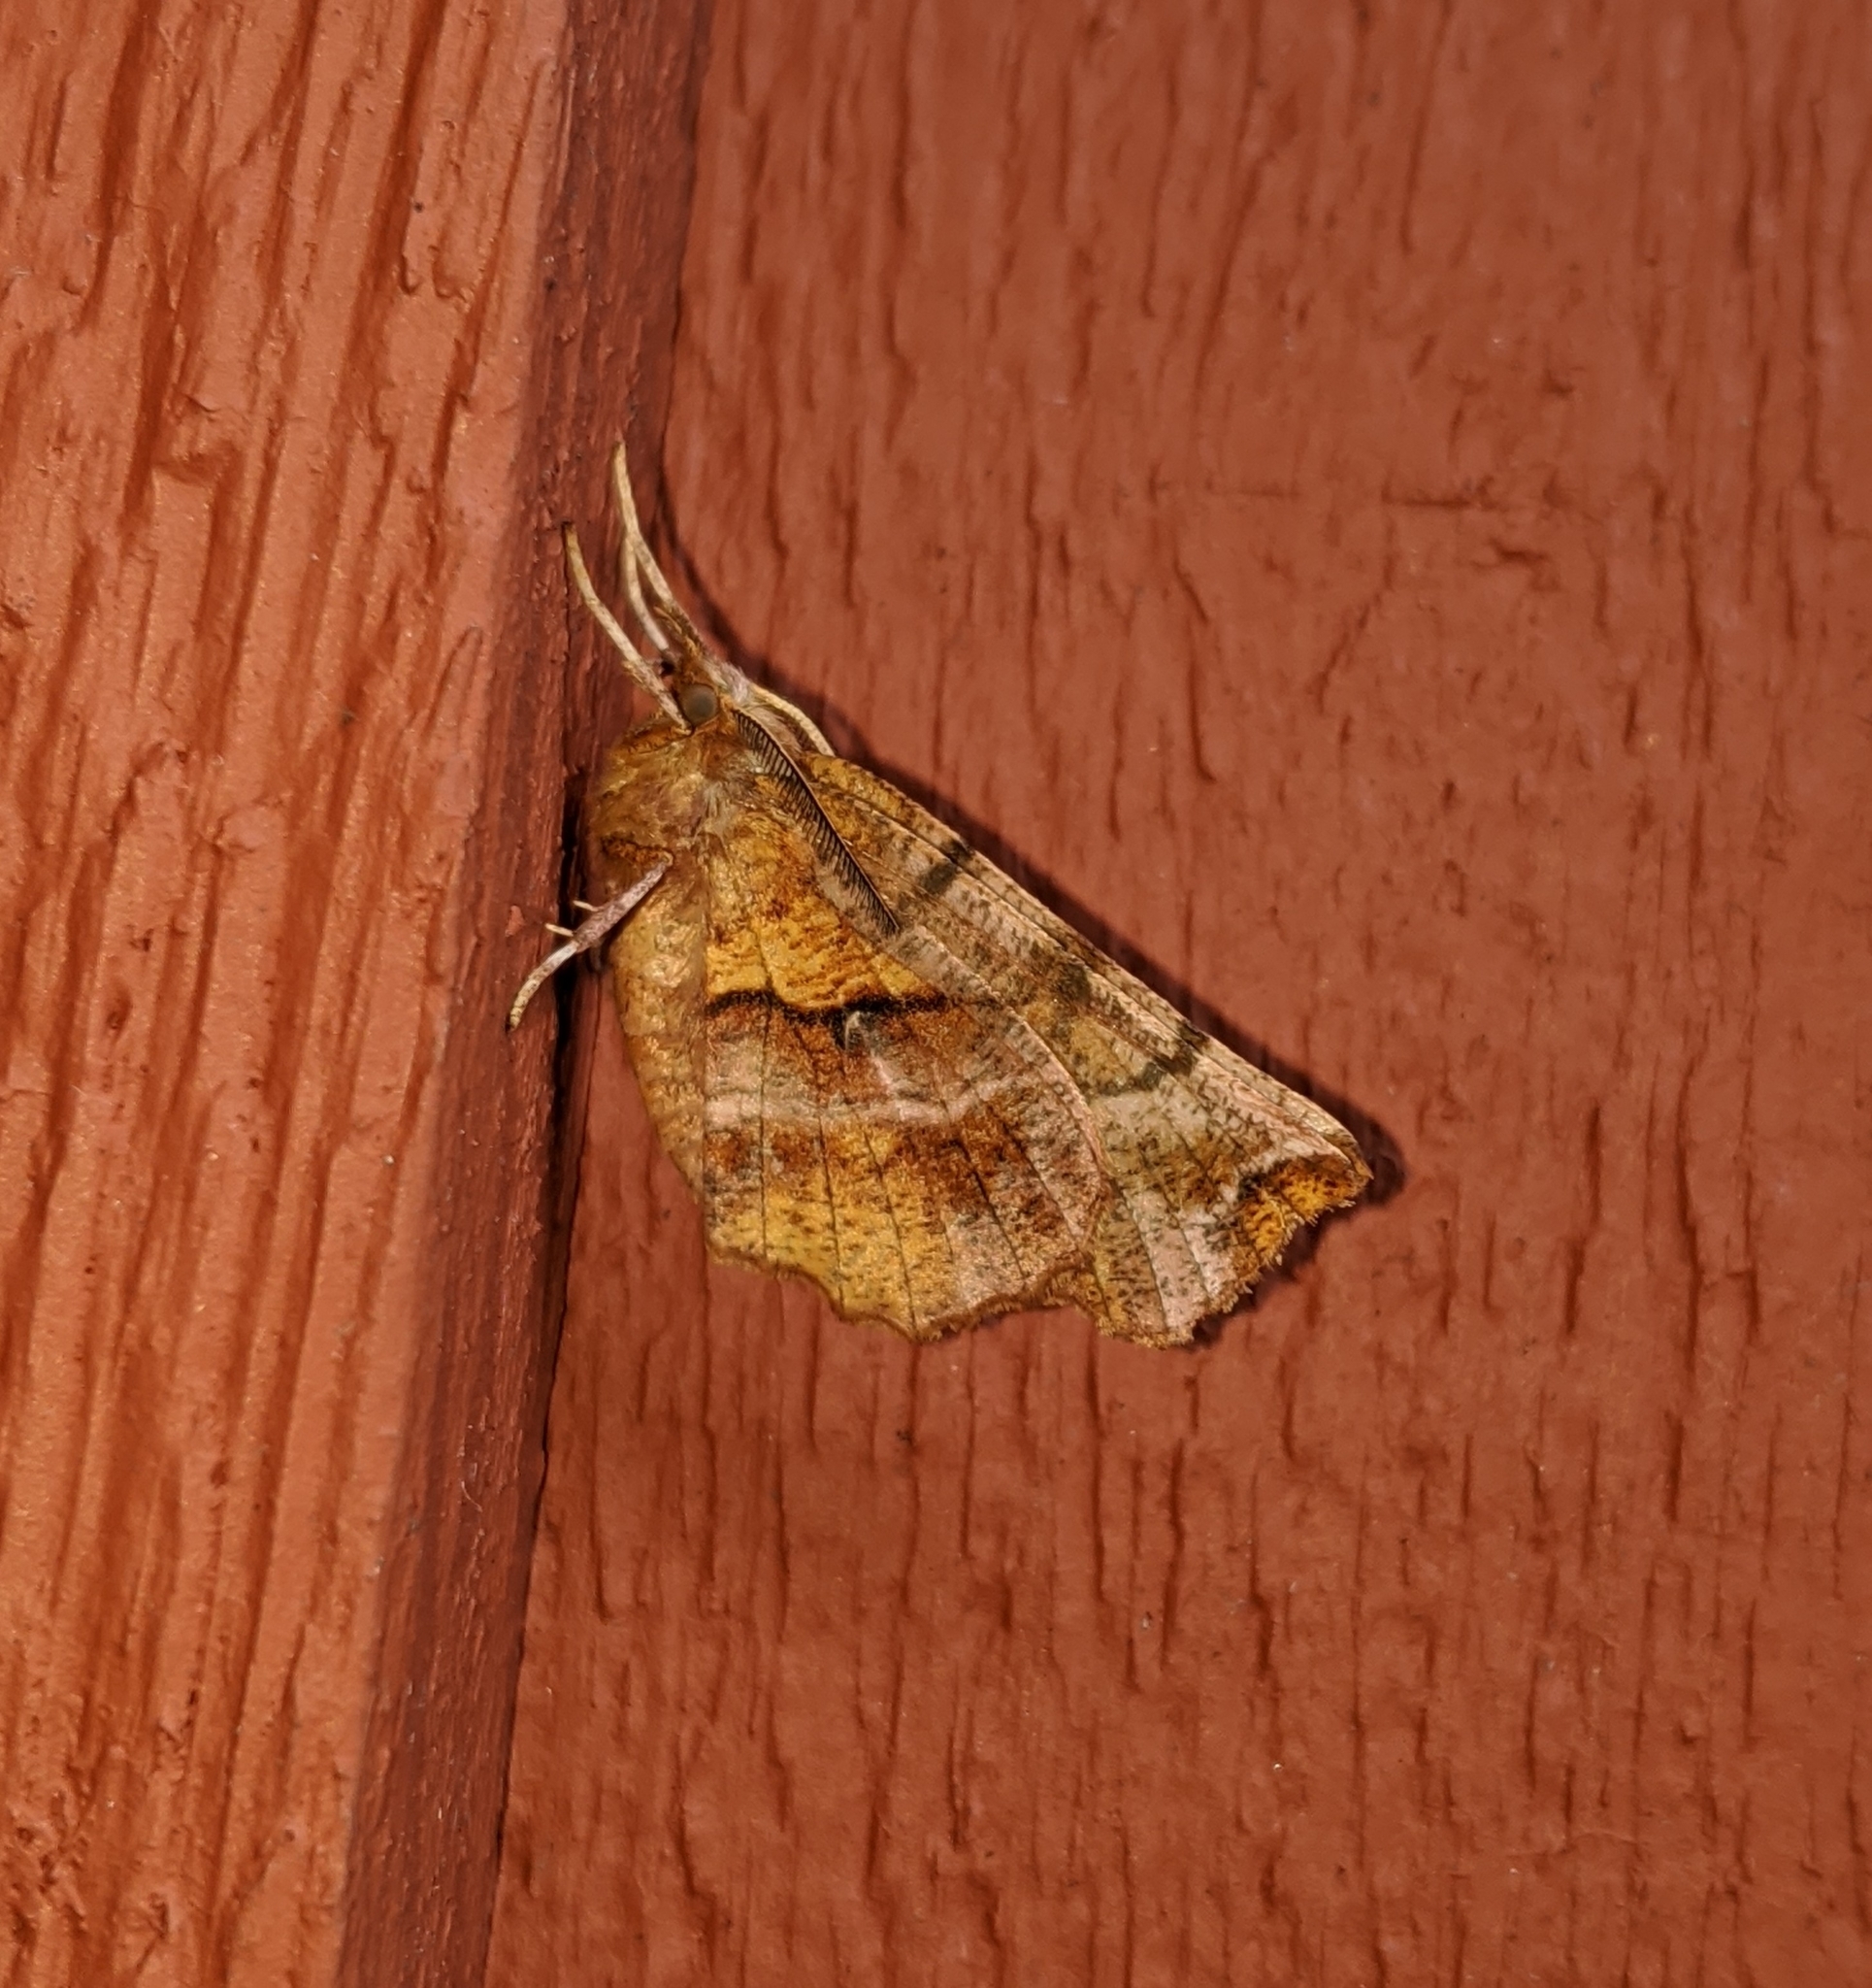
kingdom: Animalia
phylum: Arthropoda
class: Insecta
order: Lepidoptera
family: Geometridae
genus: Selenia
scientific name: Selenia alciphearia
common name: Brown-tipped thorn
